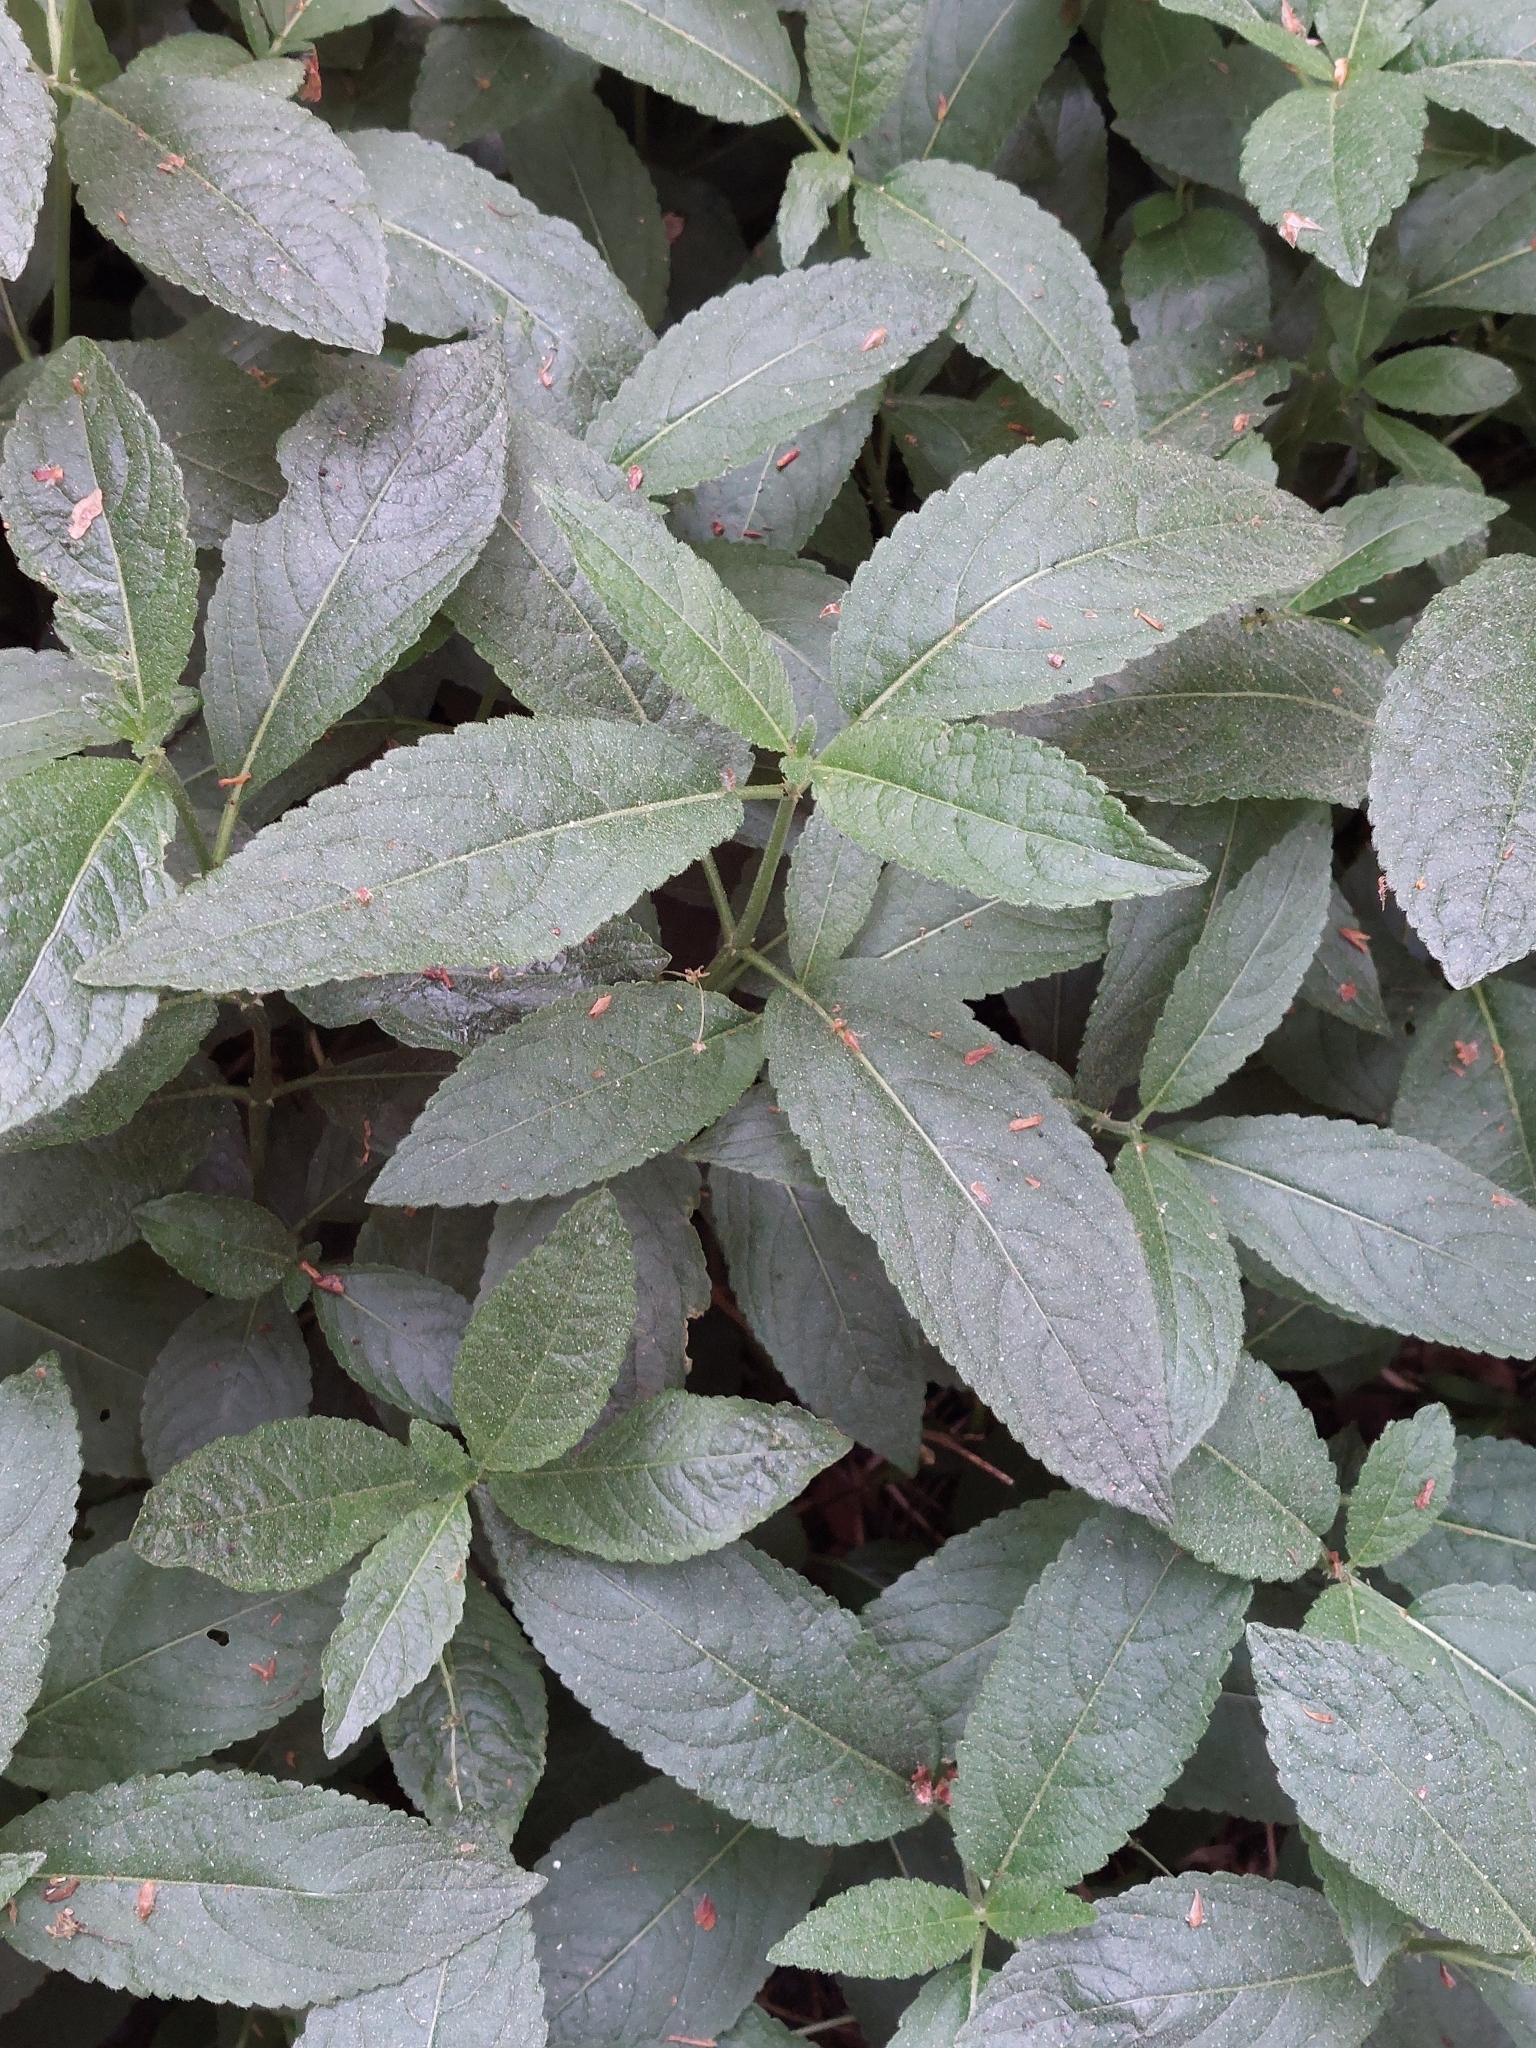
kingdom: Plantae
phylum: Tracheophyta
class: Magnoliopsida
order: Malpighiales
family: Euphorbiaceae
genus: Mercurialis
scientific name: Mercurialis perennis
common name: Dog mercury
